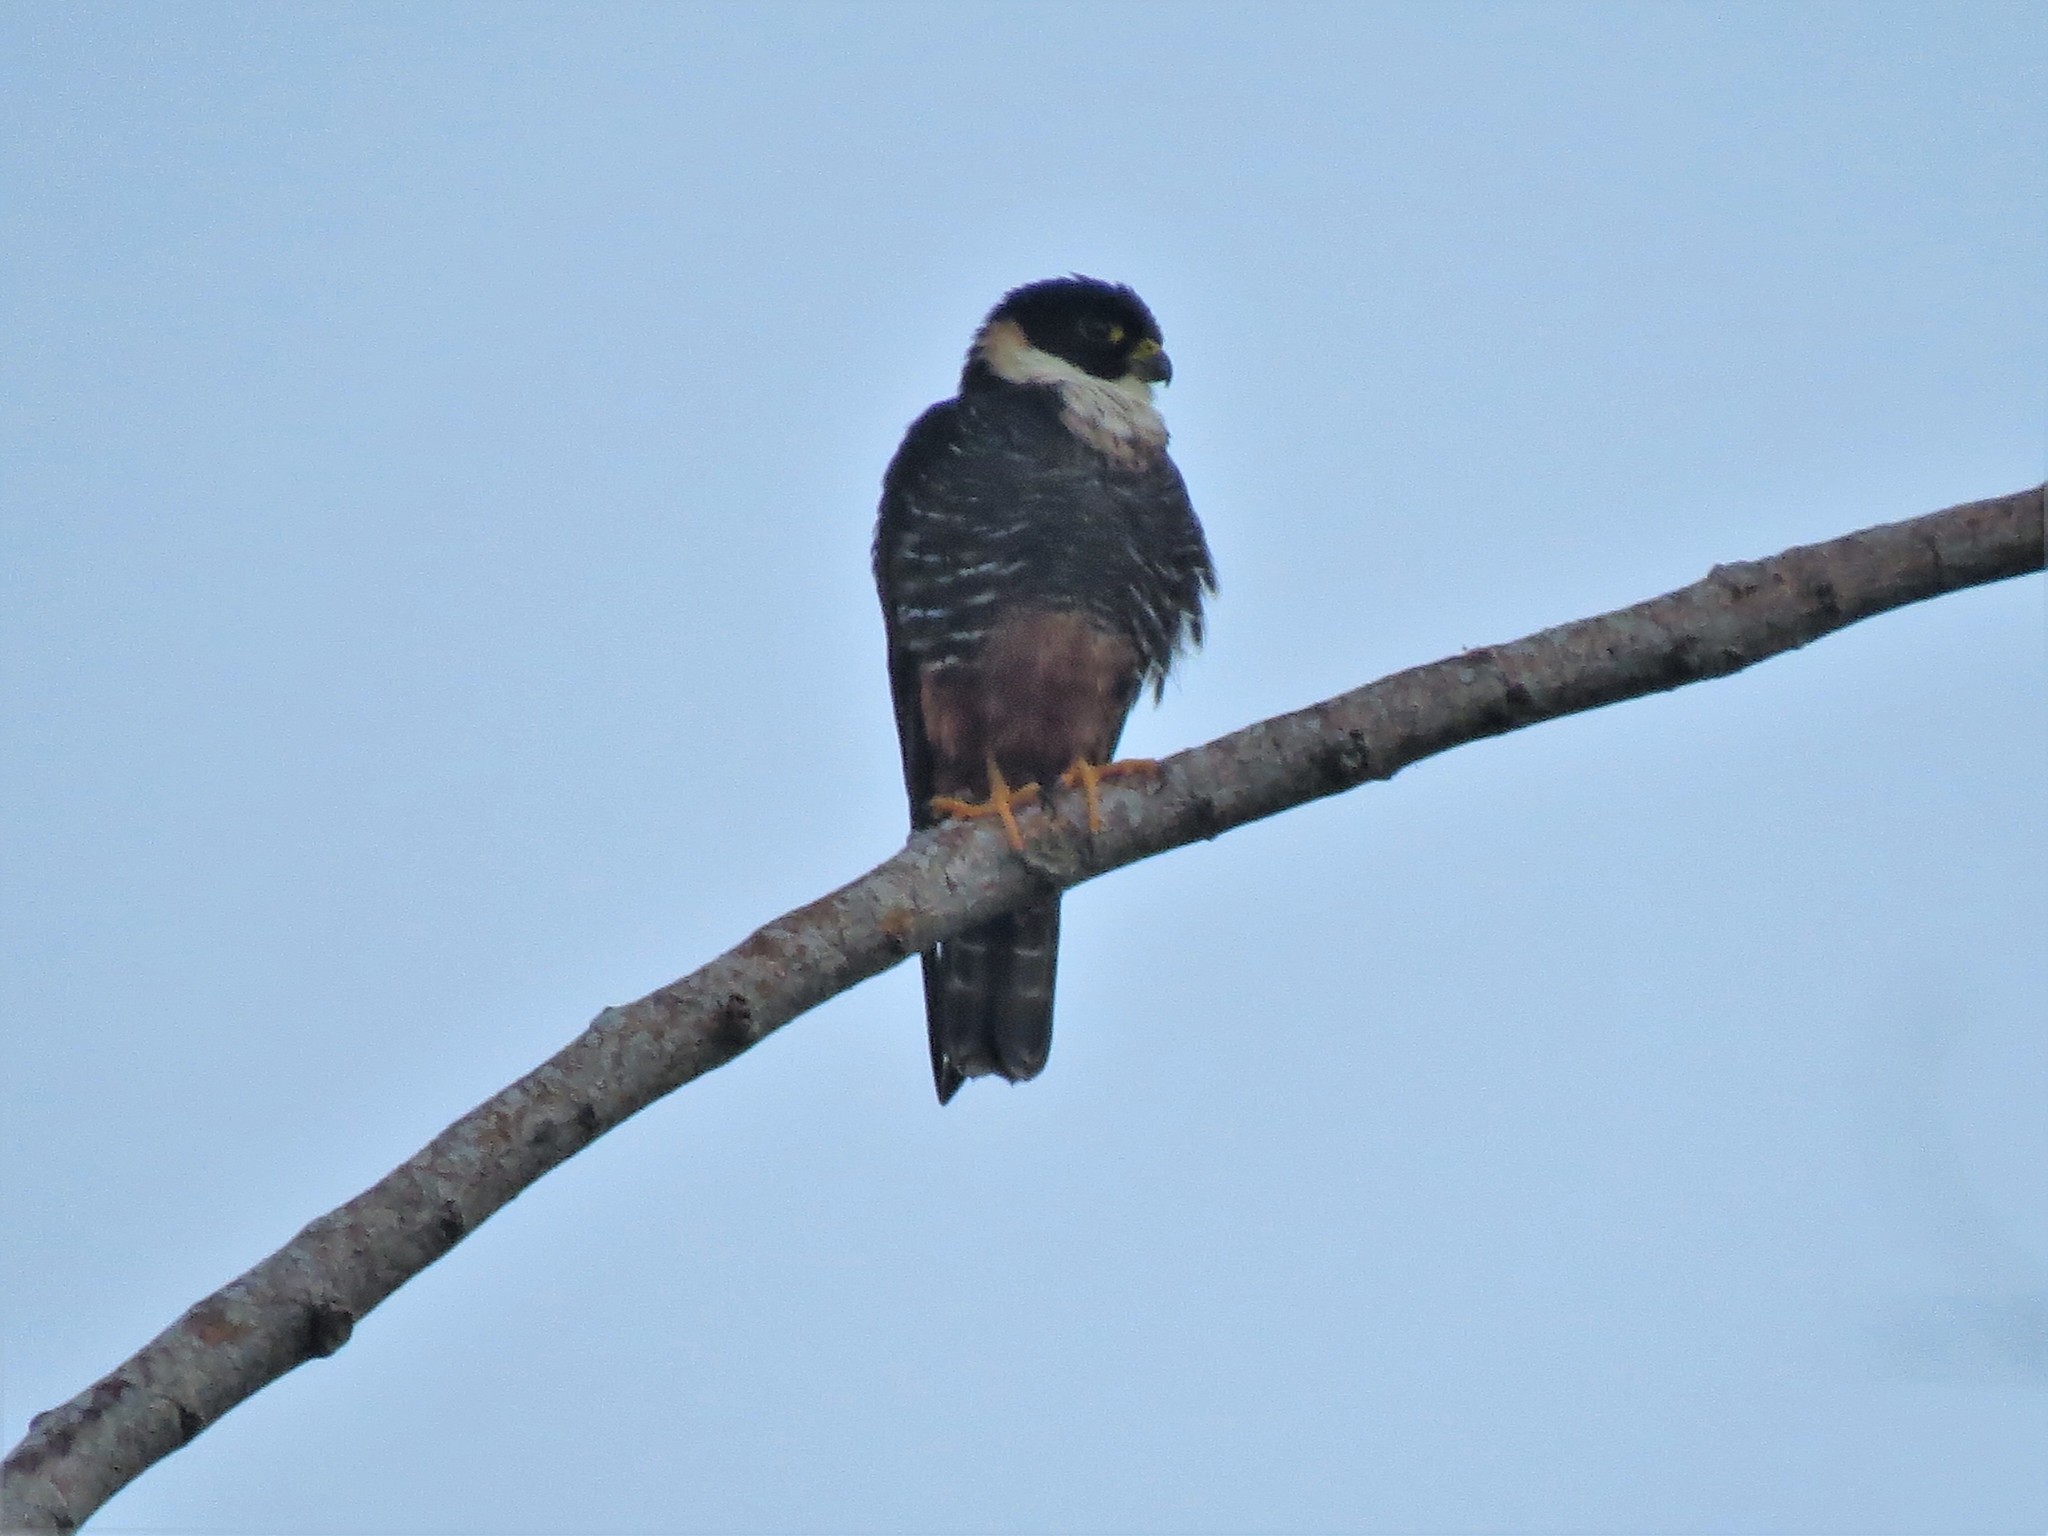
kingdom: Animalia
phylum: Chordata
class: Aves
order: Falconiformes
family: Falconidae
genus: Falco
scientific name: Falco rufigularis
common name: Bat falcon
